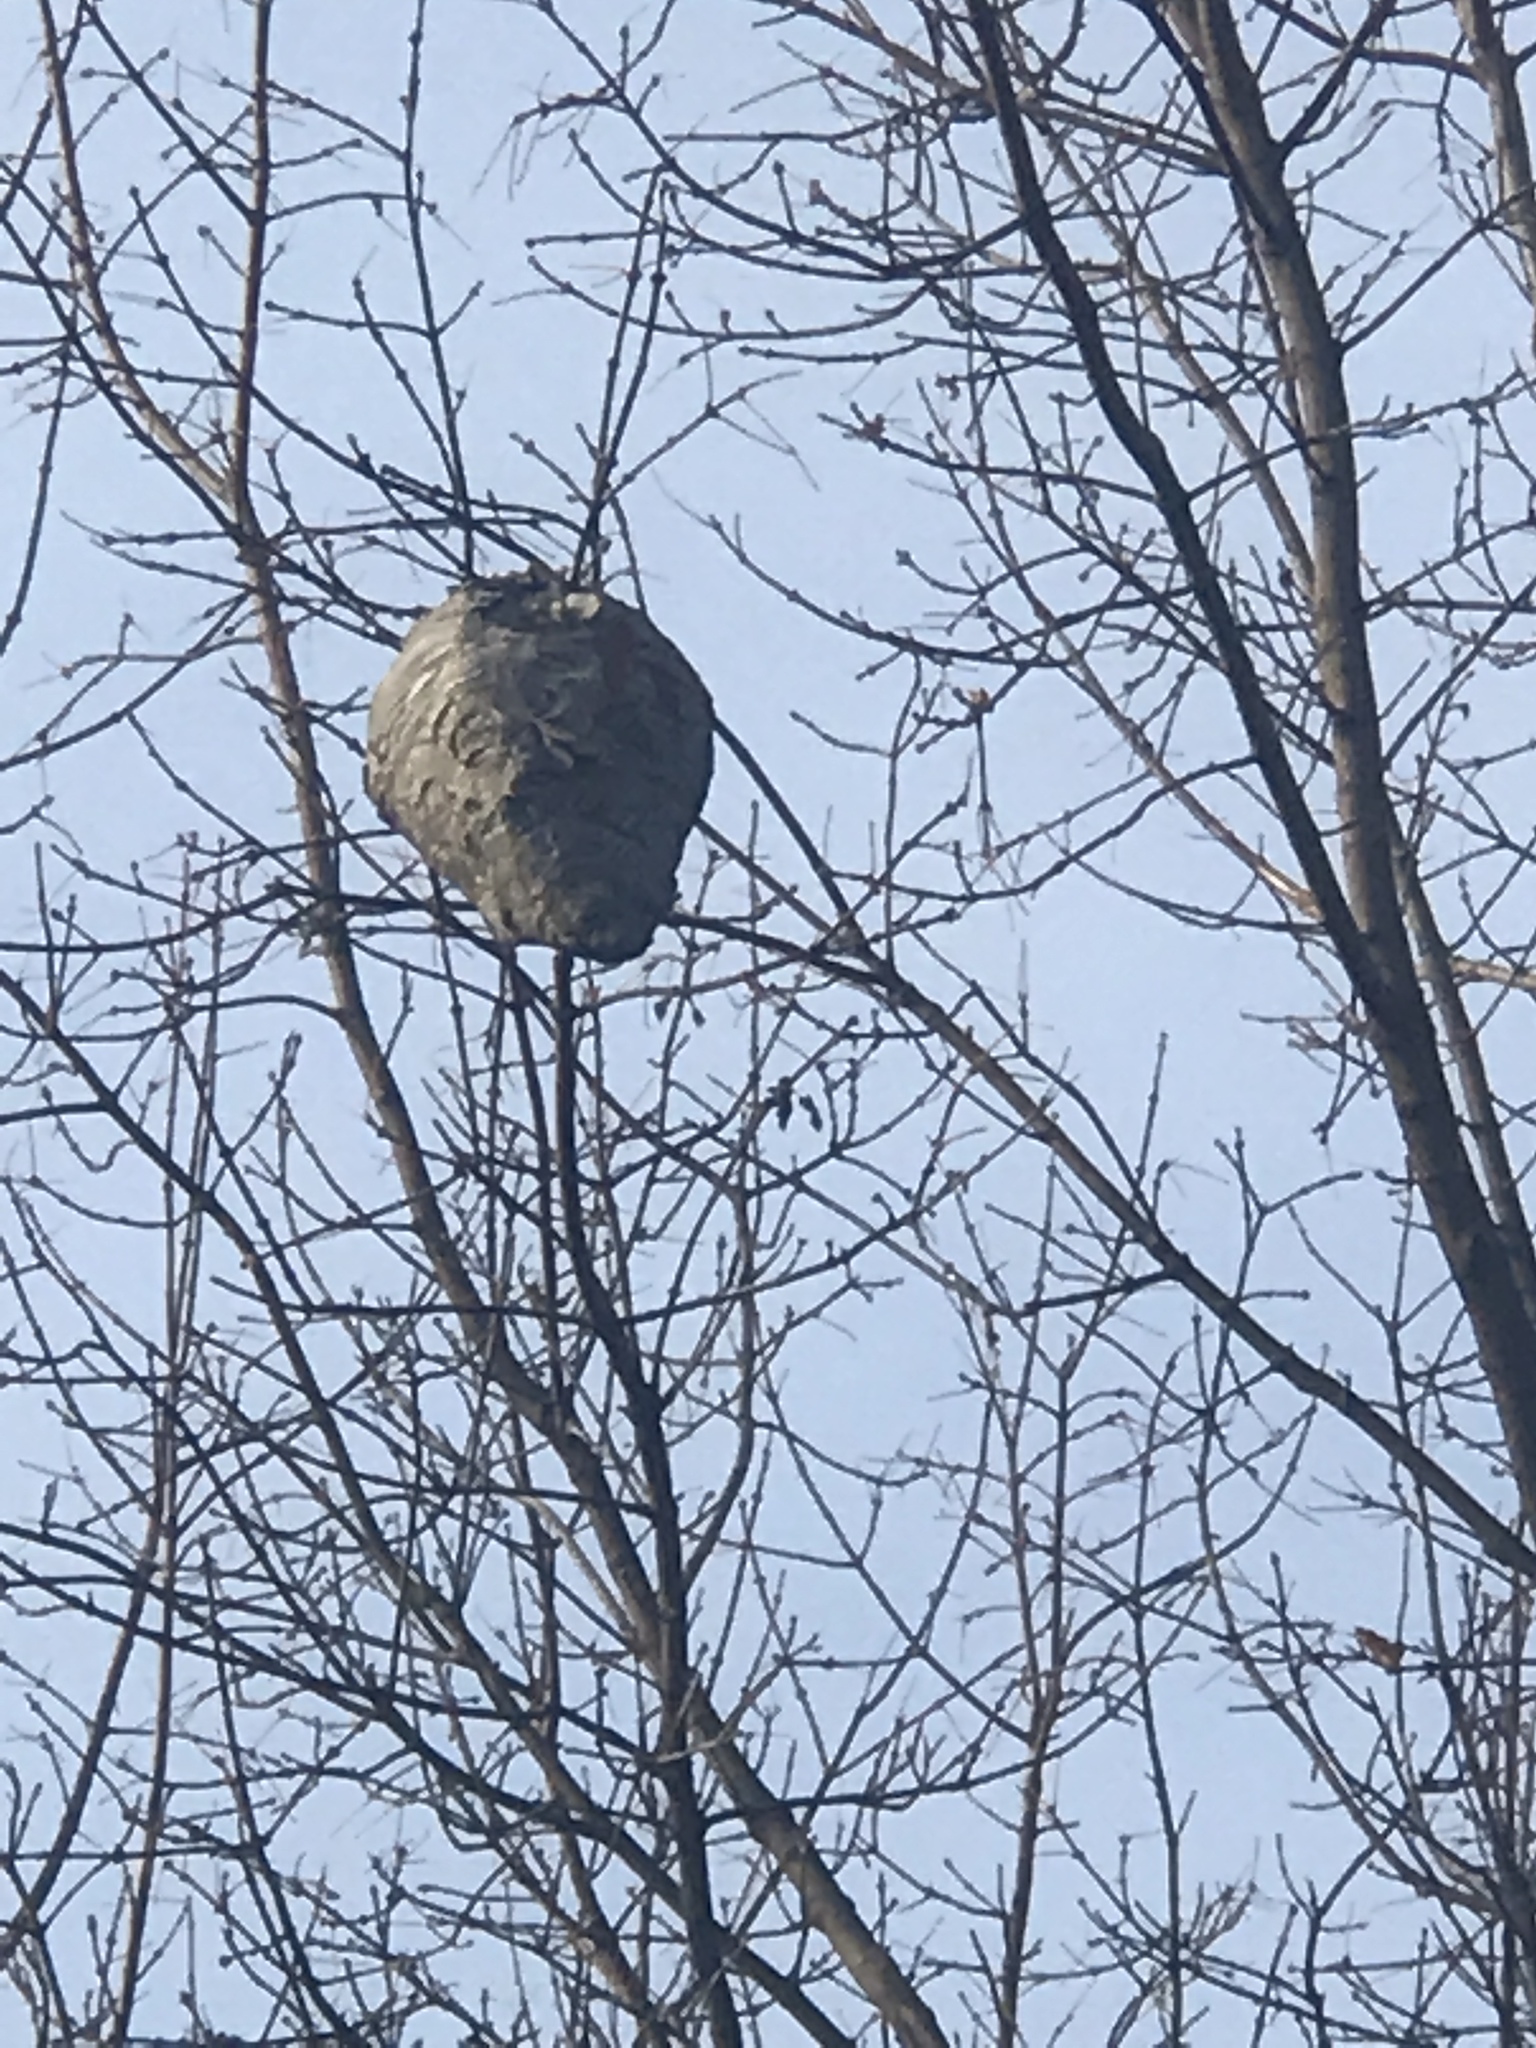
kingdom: Animalia
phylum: Arthropoda
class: Insecta
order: Hymenoptera
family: Vespidae
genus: Dolichovespula
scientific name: Dolichovespula
